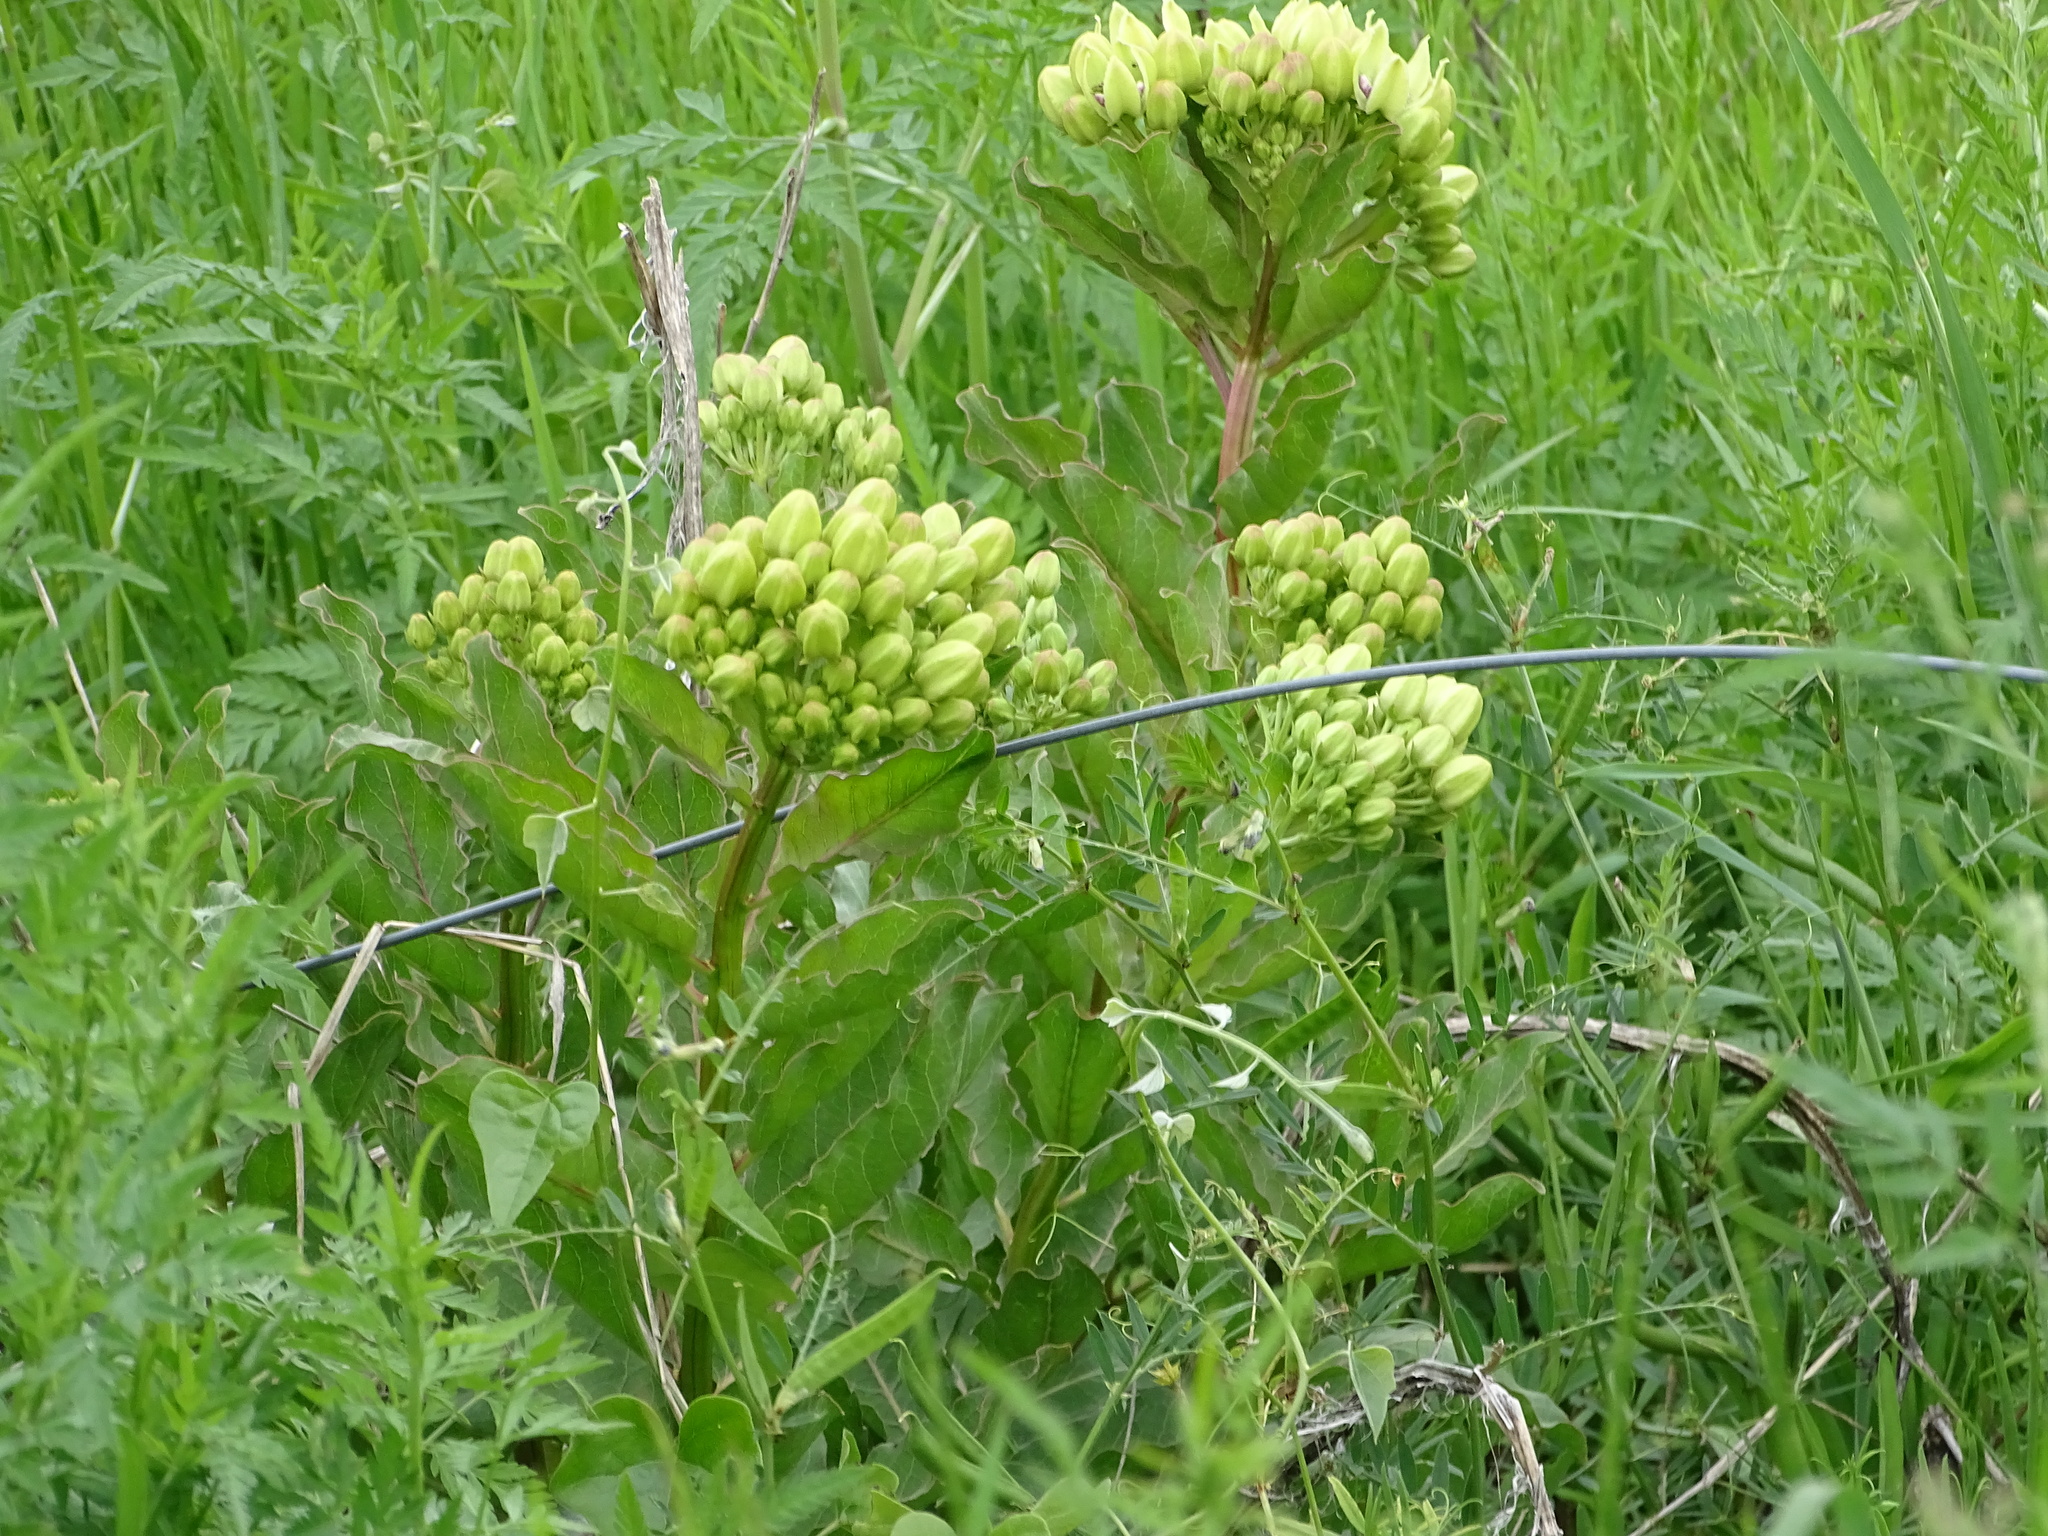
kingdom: Plantae
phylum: Tracheophyta
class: Magnoliopsida
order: Gentianales
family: Apocynaceae
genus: Asclepias
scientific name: Asclepias viridis
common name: Antelope-horns
